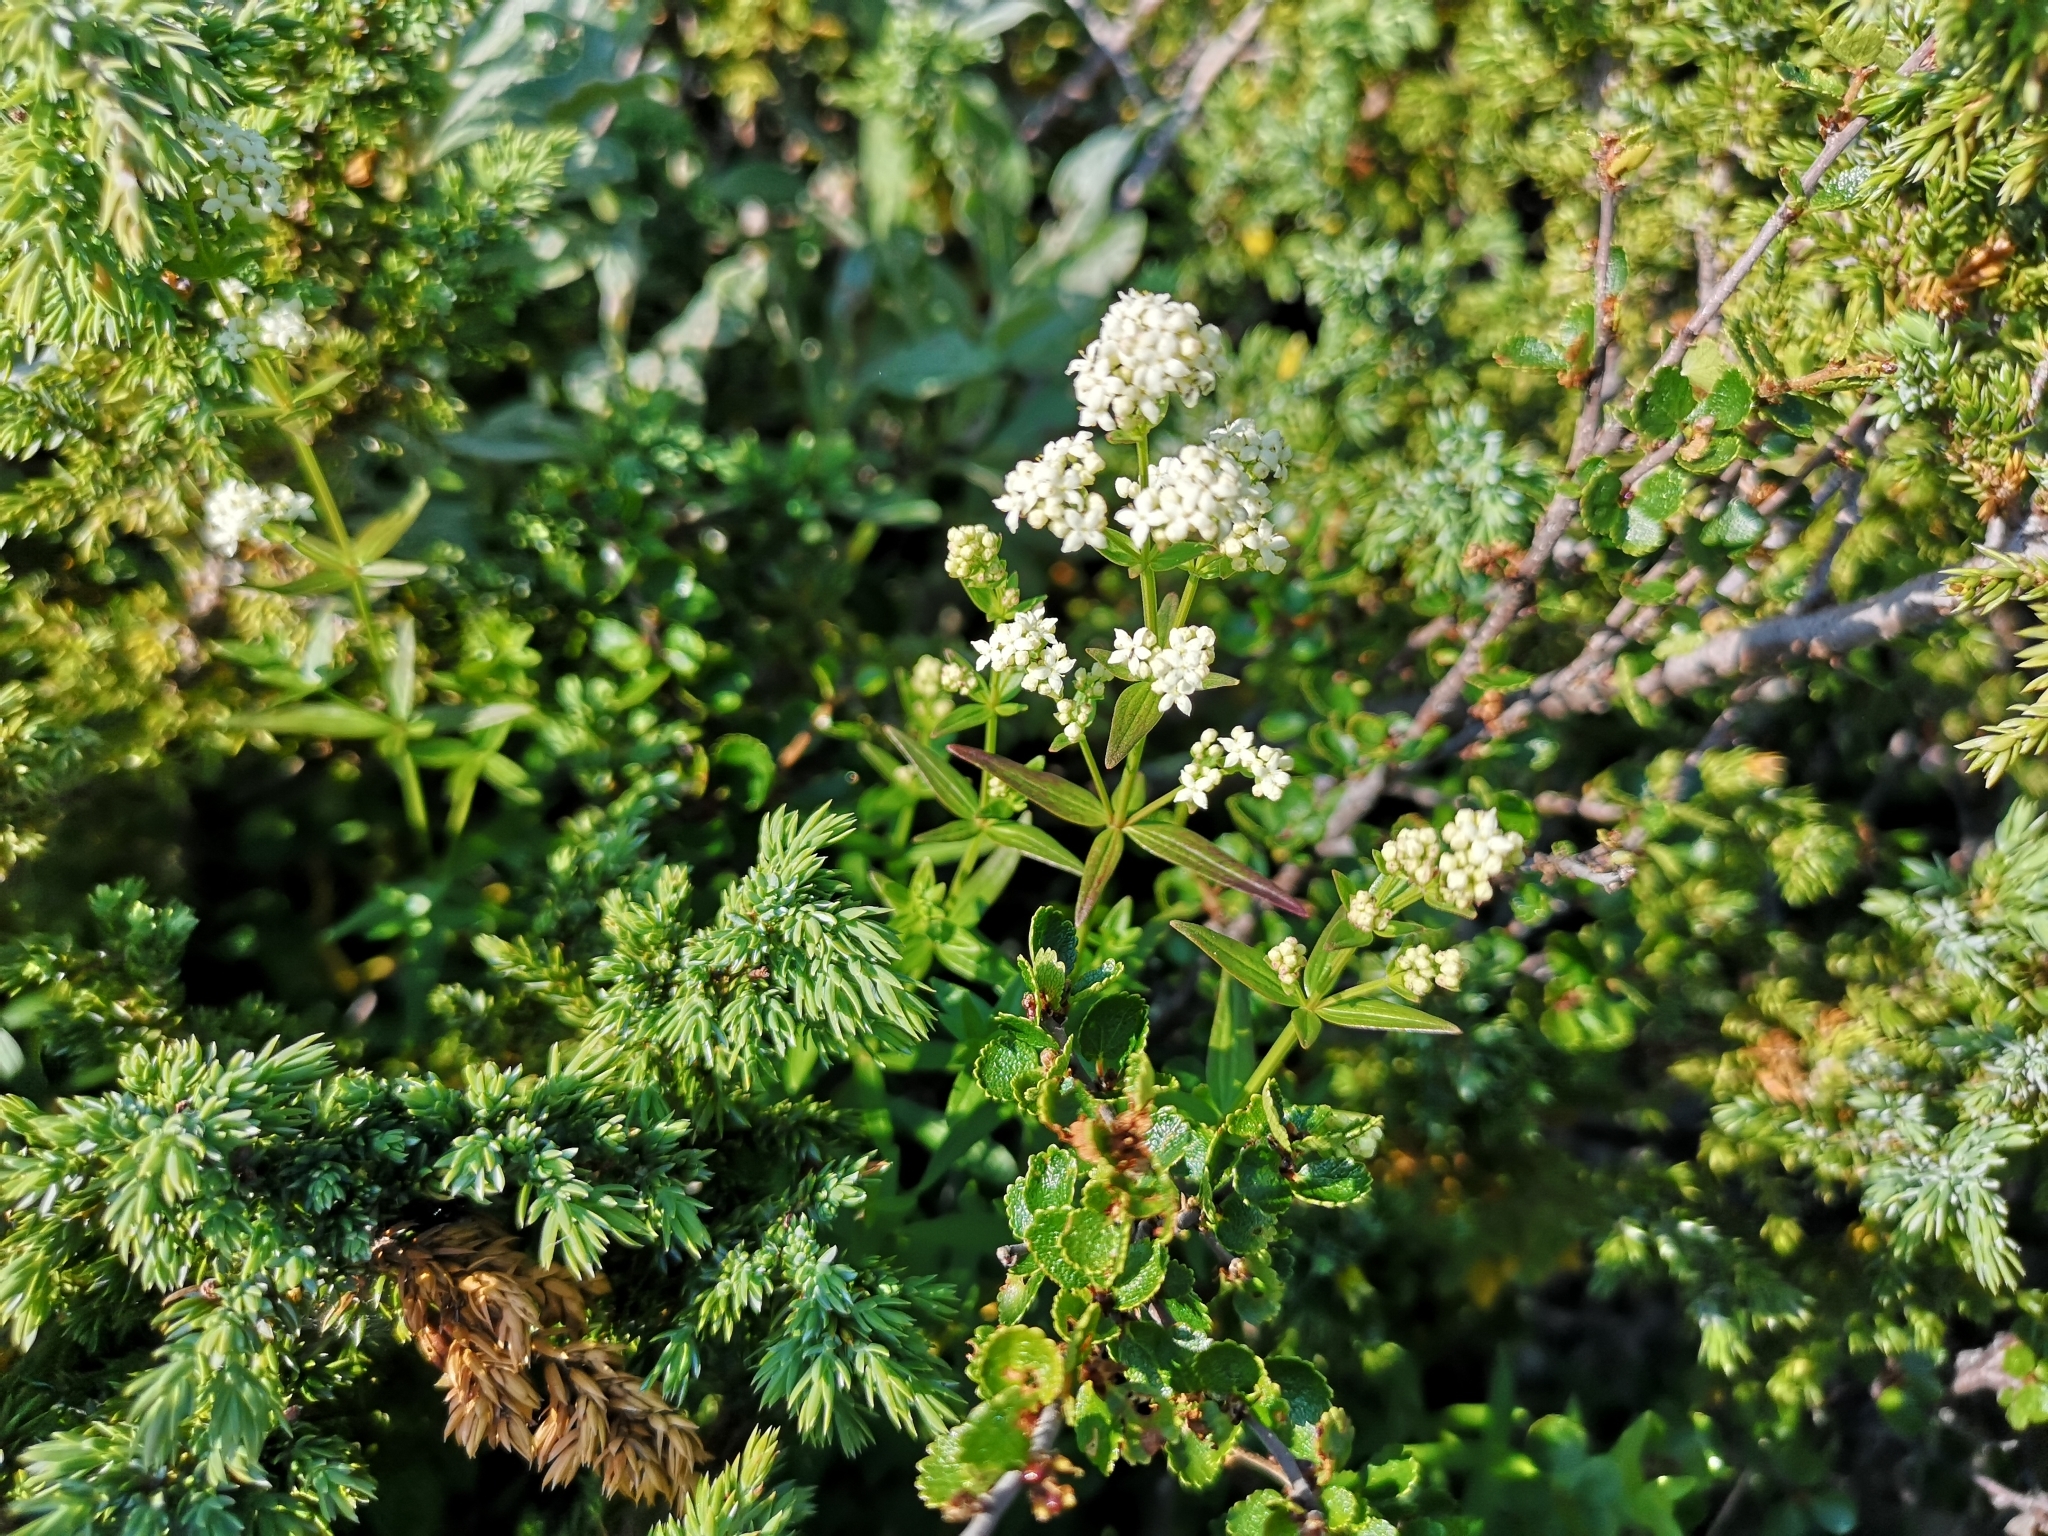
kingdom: Plantae
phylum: Tracheophyta
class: Magnoliopsida
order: Gentianales
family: Rubiaceae
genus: Galium
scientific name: Galium boreale
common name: Northern bedstraw
